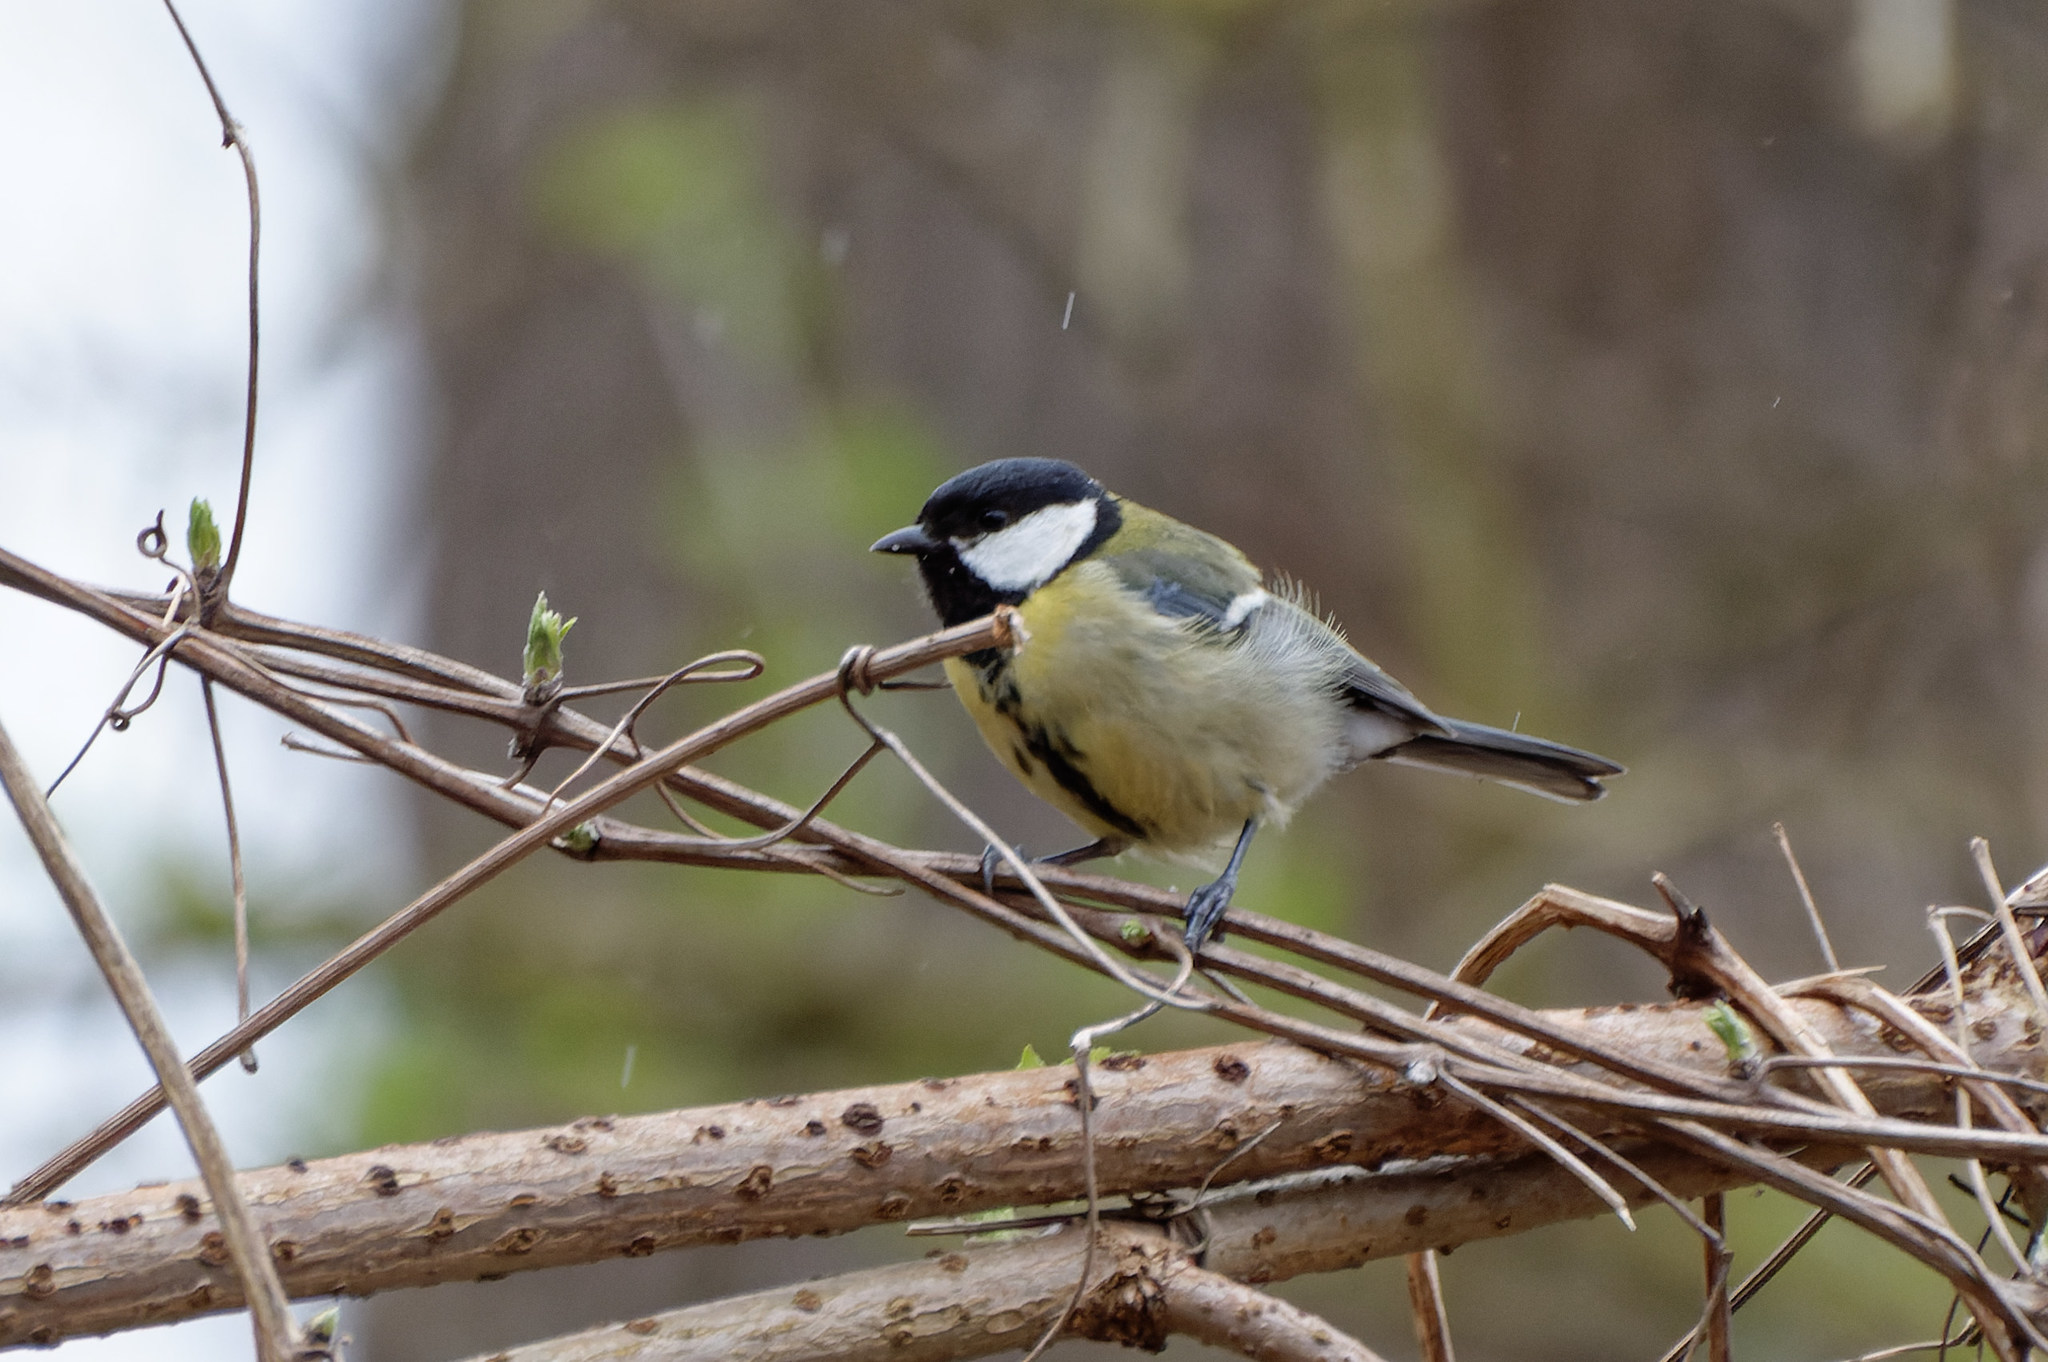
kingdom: Animalia
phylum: Chordata
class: Aves
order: Passeriformes
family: Paridae
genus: Parus
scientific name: Parus major
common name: Great tit
